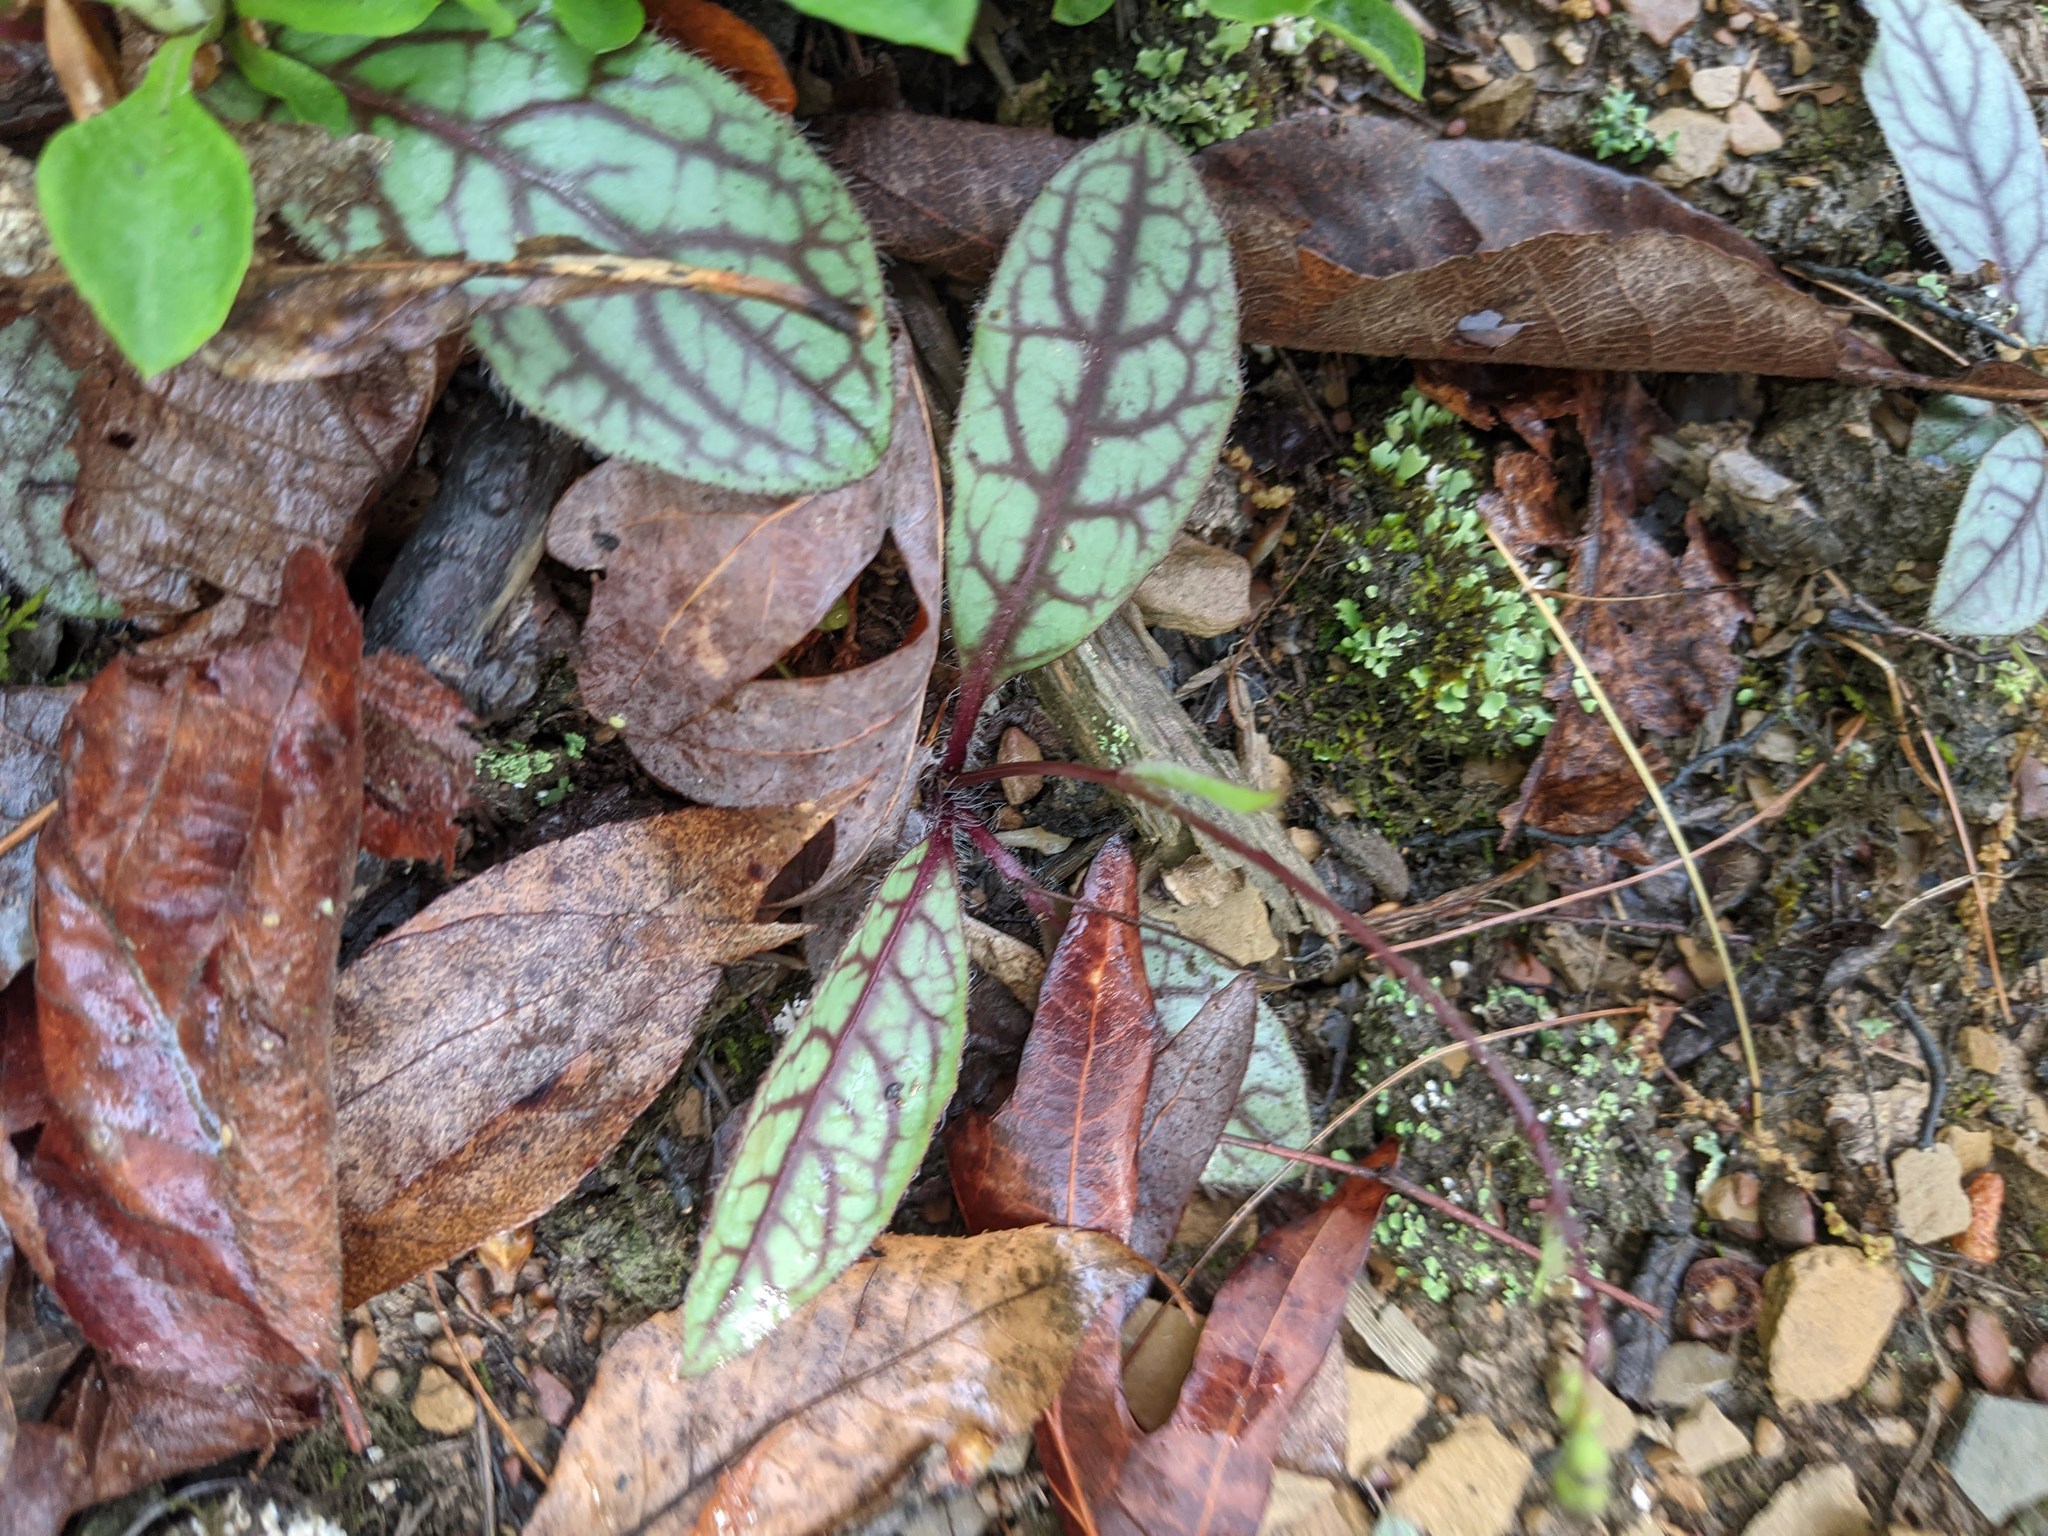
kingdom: Plantae
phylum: Tracheophyta
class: Magnoliopsida
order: Asterales
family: Asteraceae
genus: Hieracium
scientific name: Hieracium venosum
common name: Rattlesnake hawkweed
